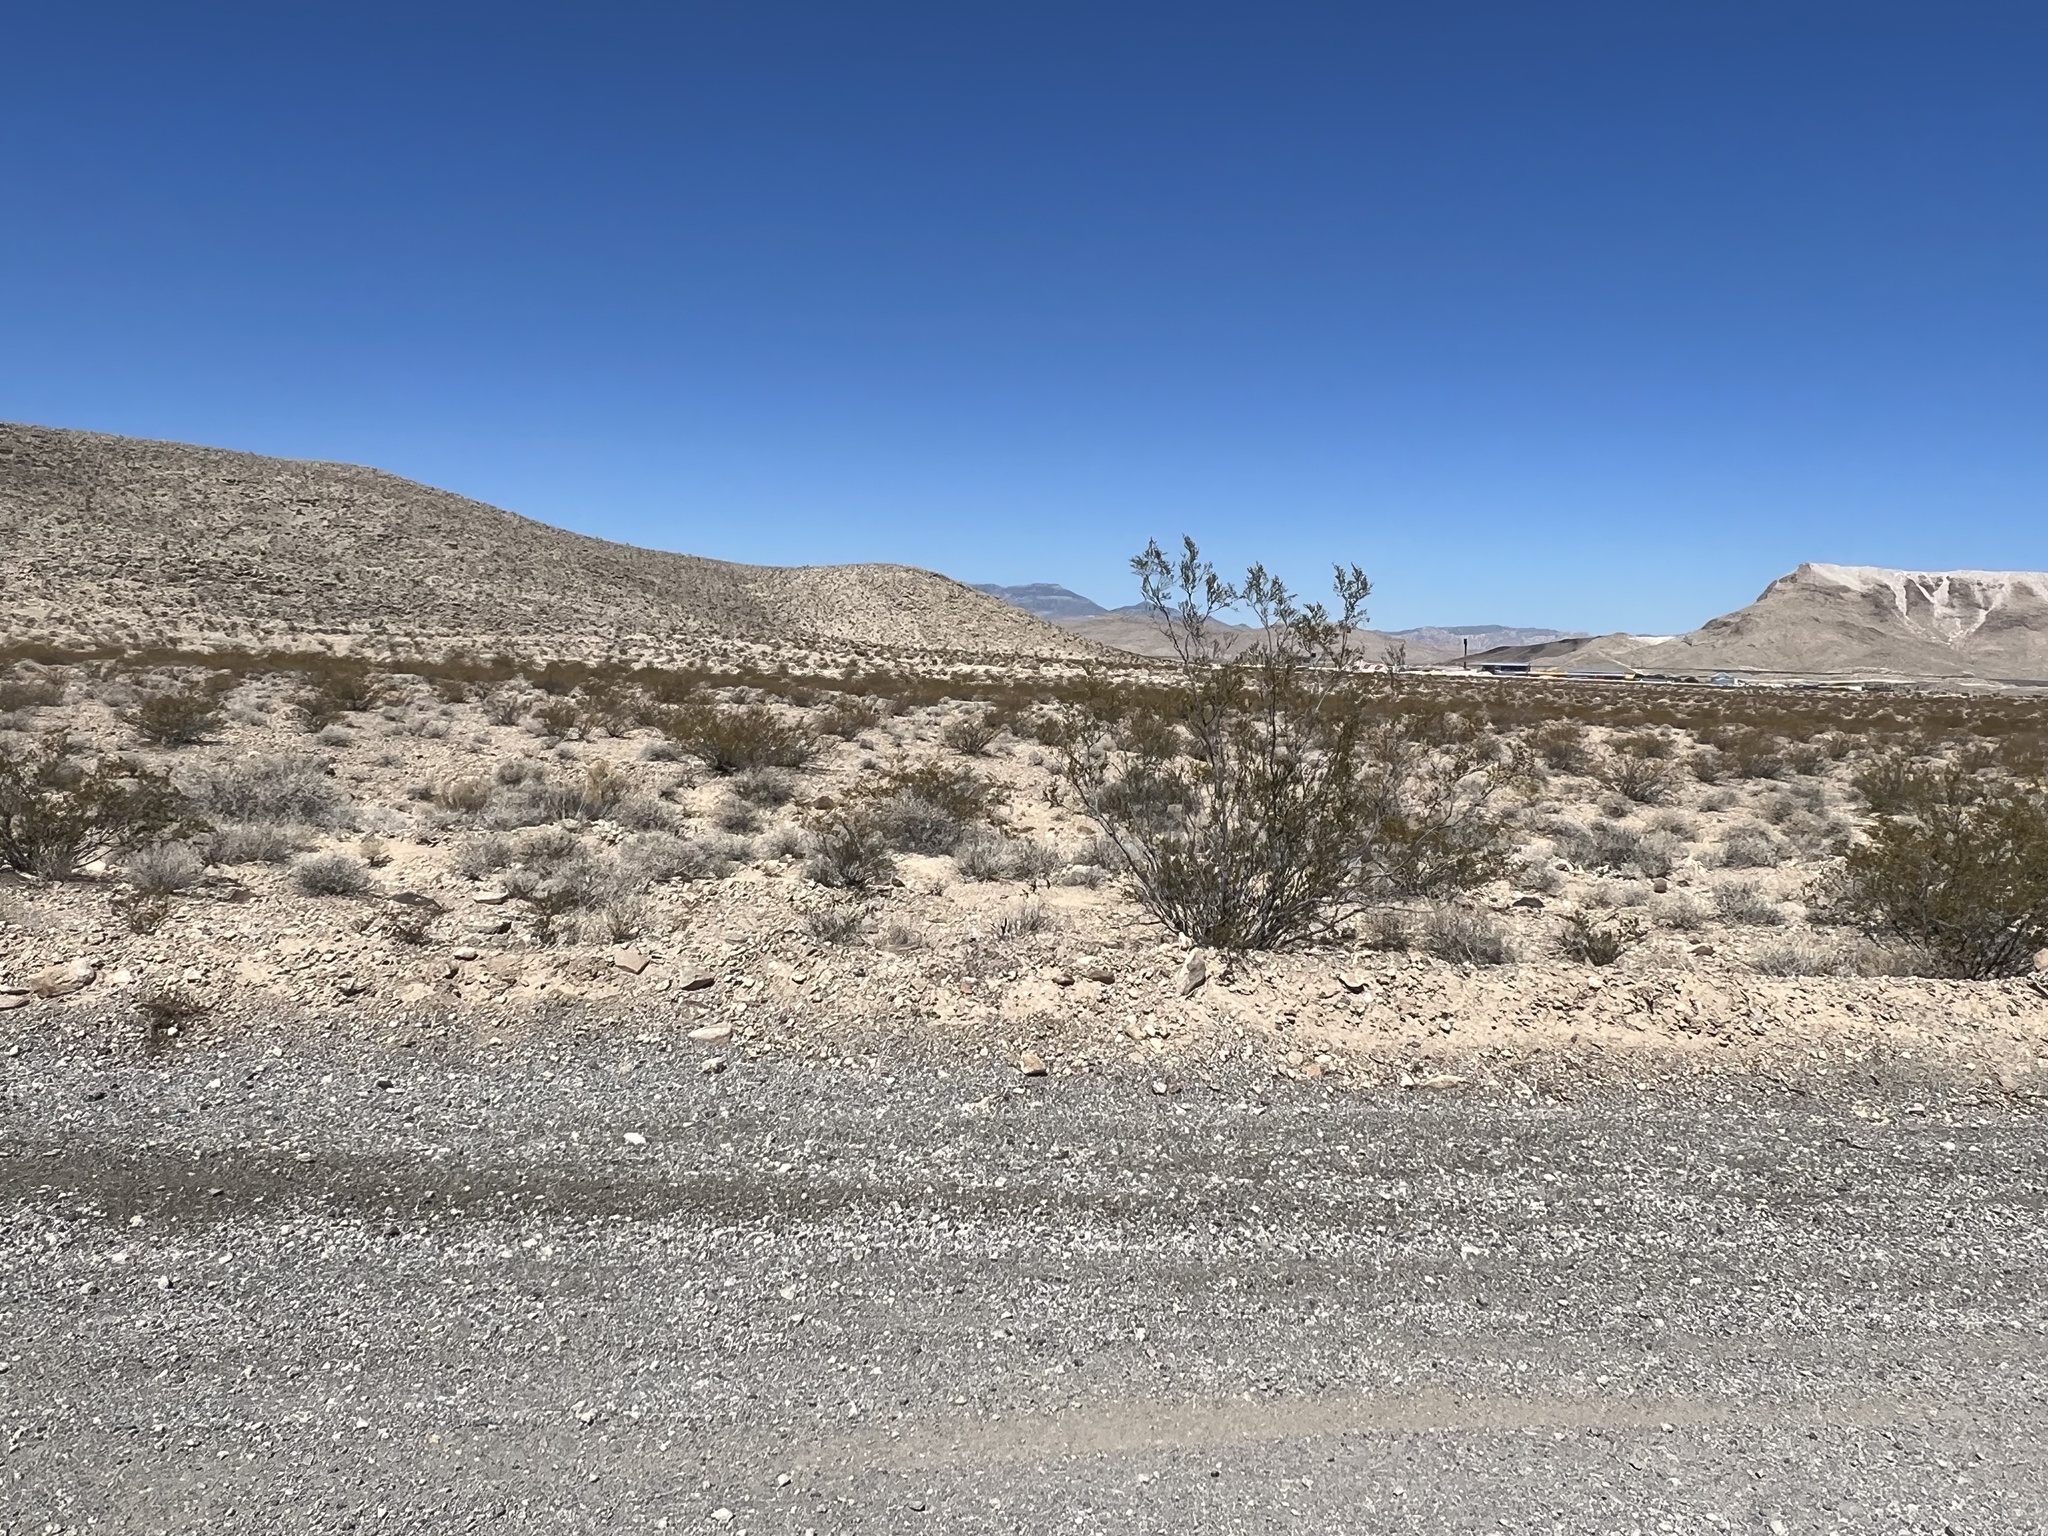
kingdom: Plantae
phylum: Tracheophyta
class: Magnoliopsida
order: Zygophyllales
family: Zygophyllaceae
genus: Larrea
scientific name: Larrea tridentata
